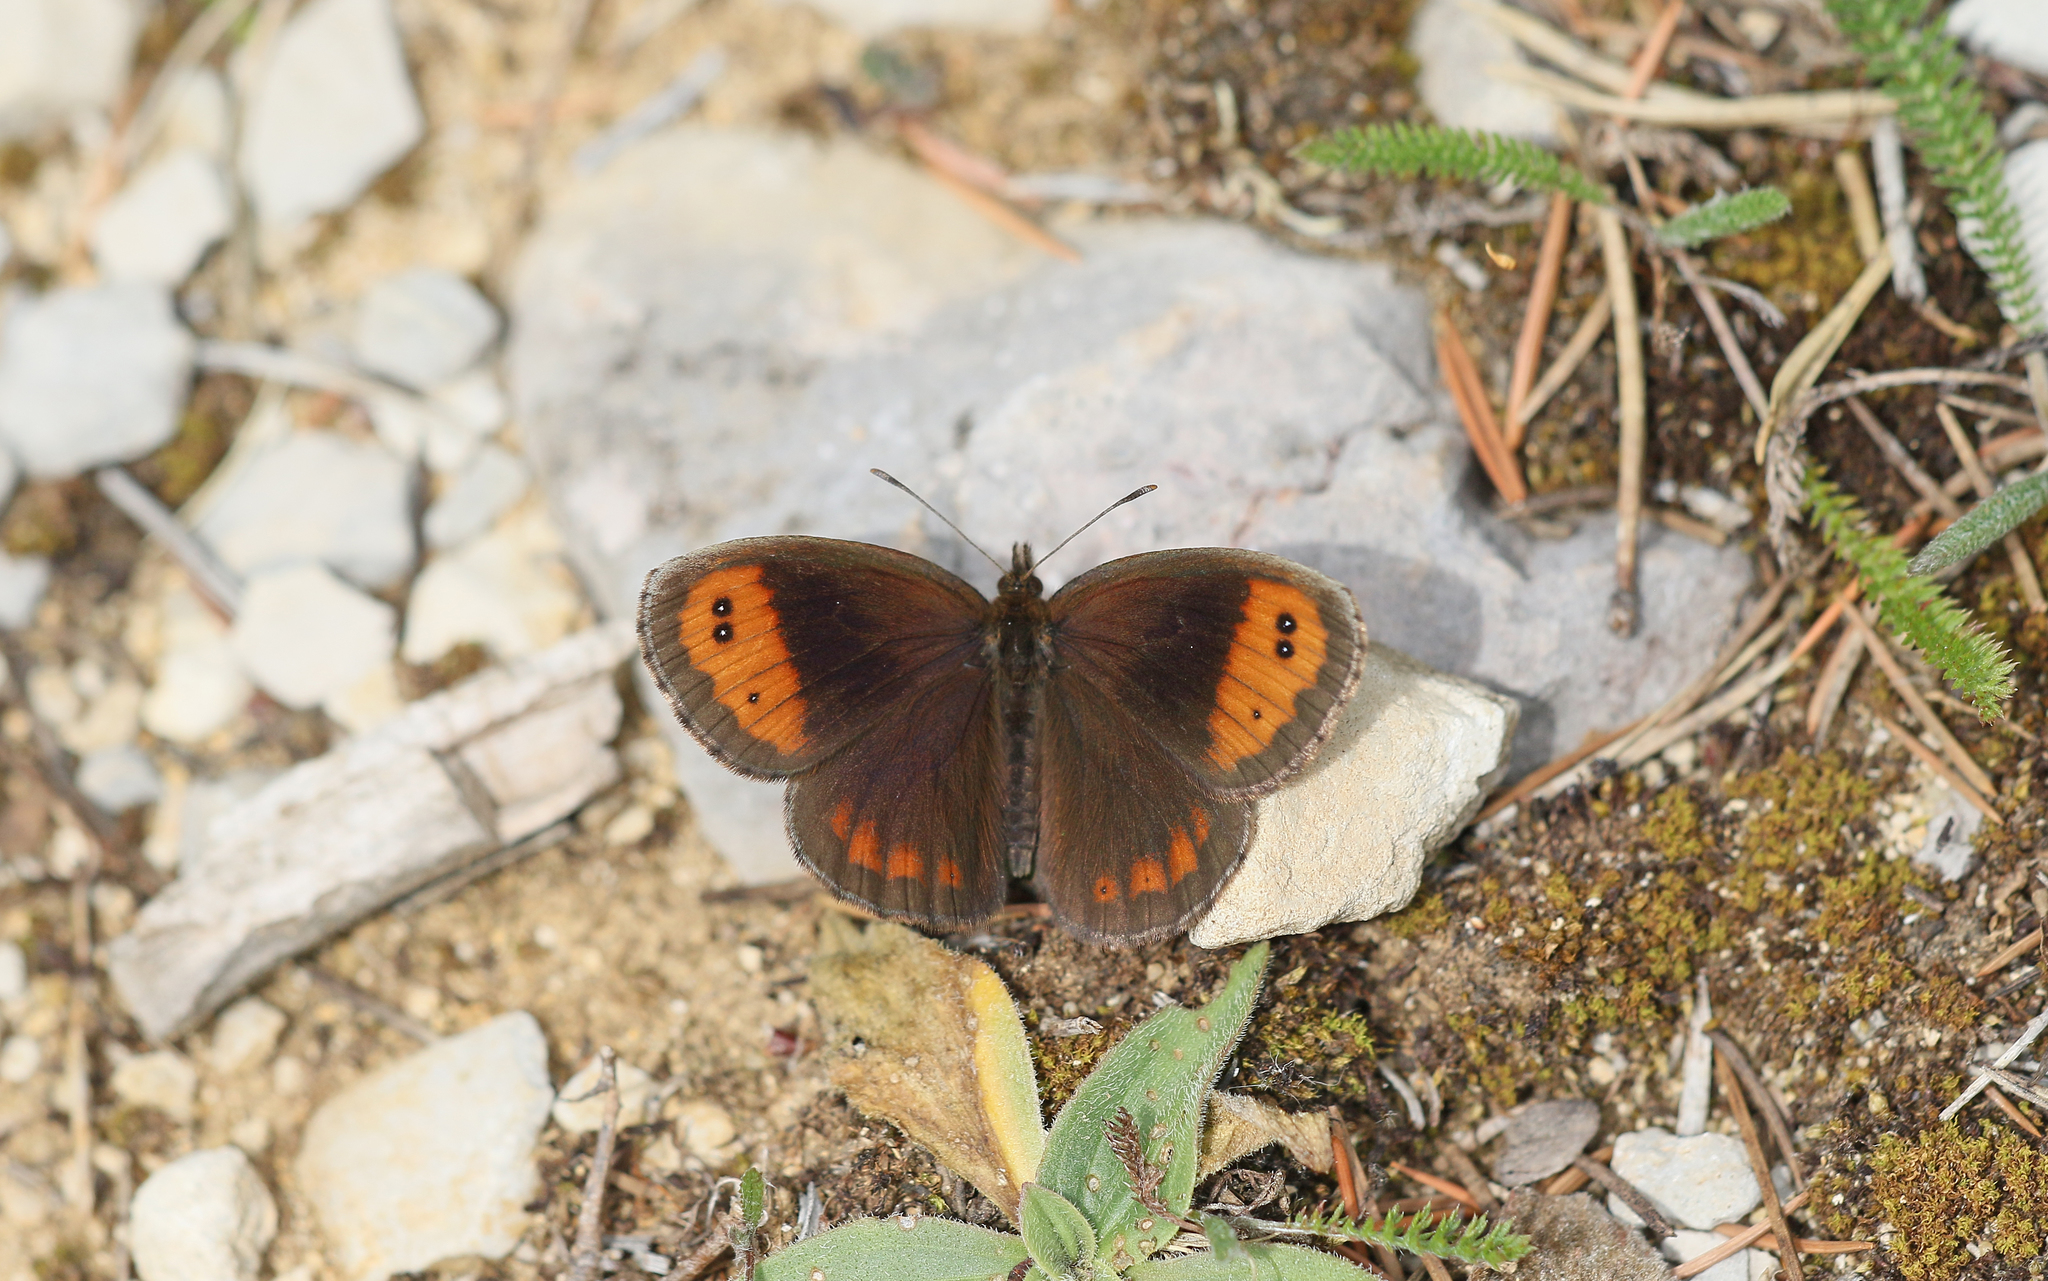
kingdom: Animalia
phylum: Arthropoda
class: Insecta
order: Lepidoptera
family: Nymphalidae
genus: Erebia
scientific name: Erebia neoridas
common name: Autumn ringlet
